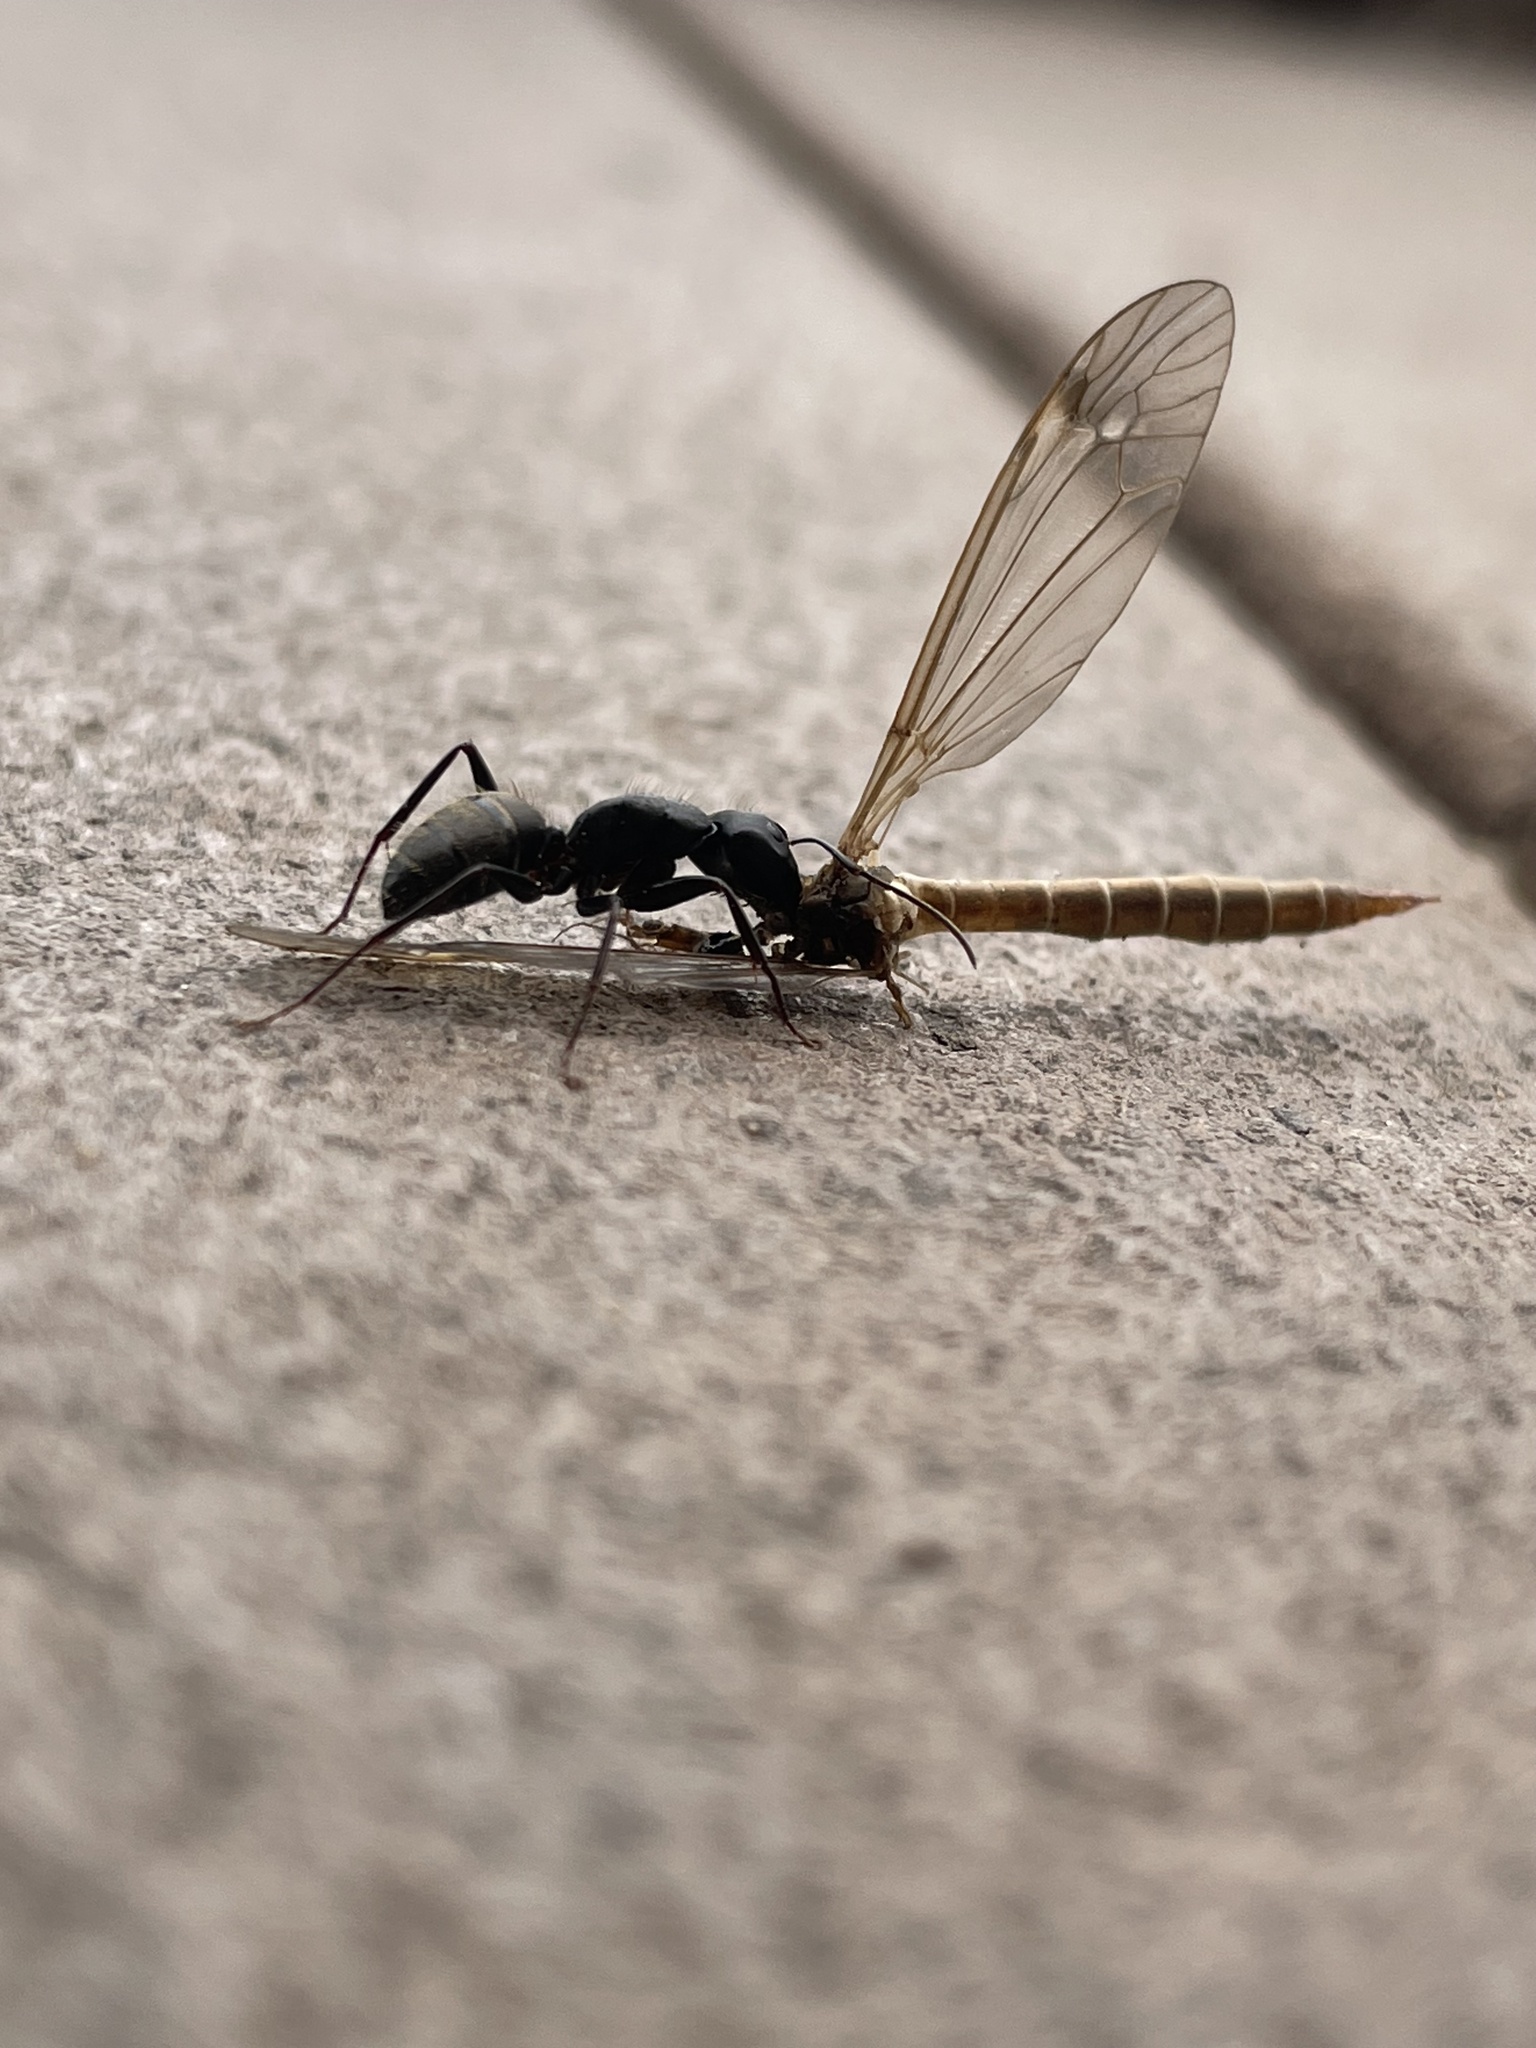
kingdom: Animalia
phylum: Arthropoda
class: Insecta
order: Hymenoptera
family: Formicidae
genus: Camponotus
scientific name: Camponotus pennsylvanicus
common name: Black carpenter ant
